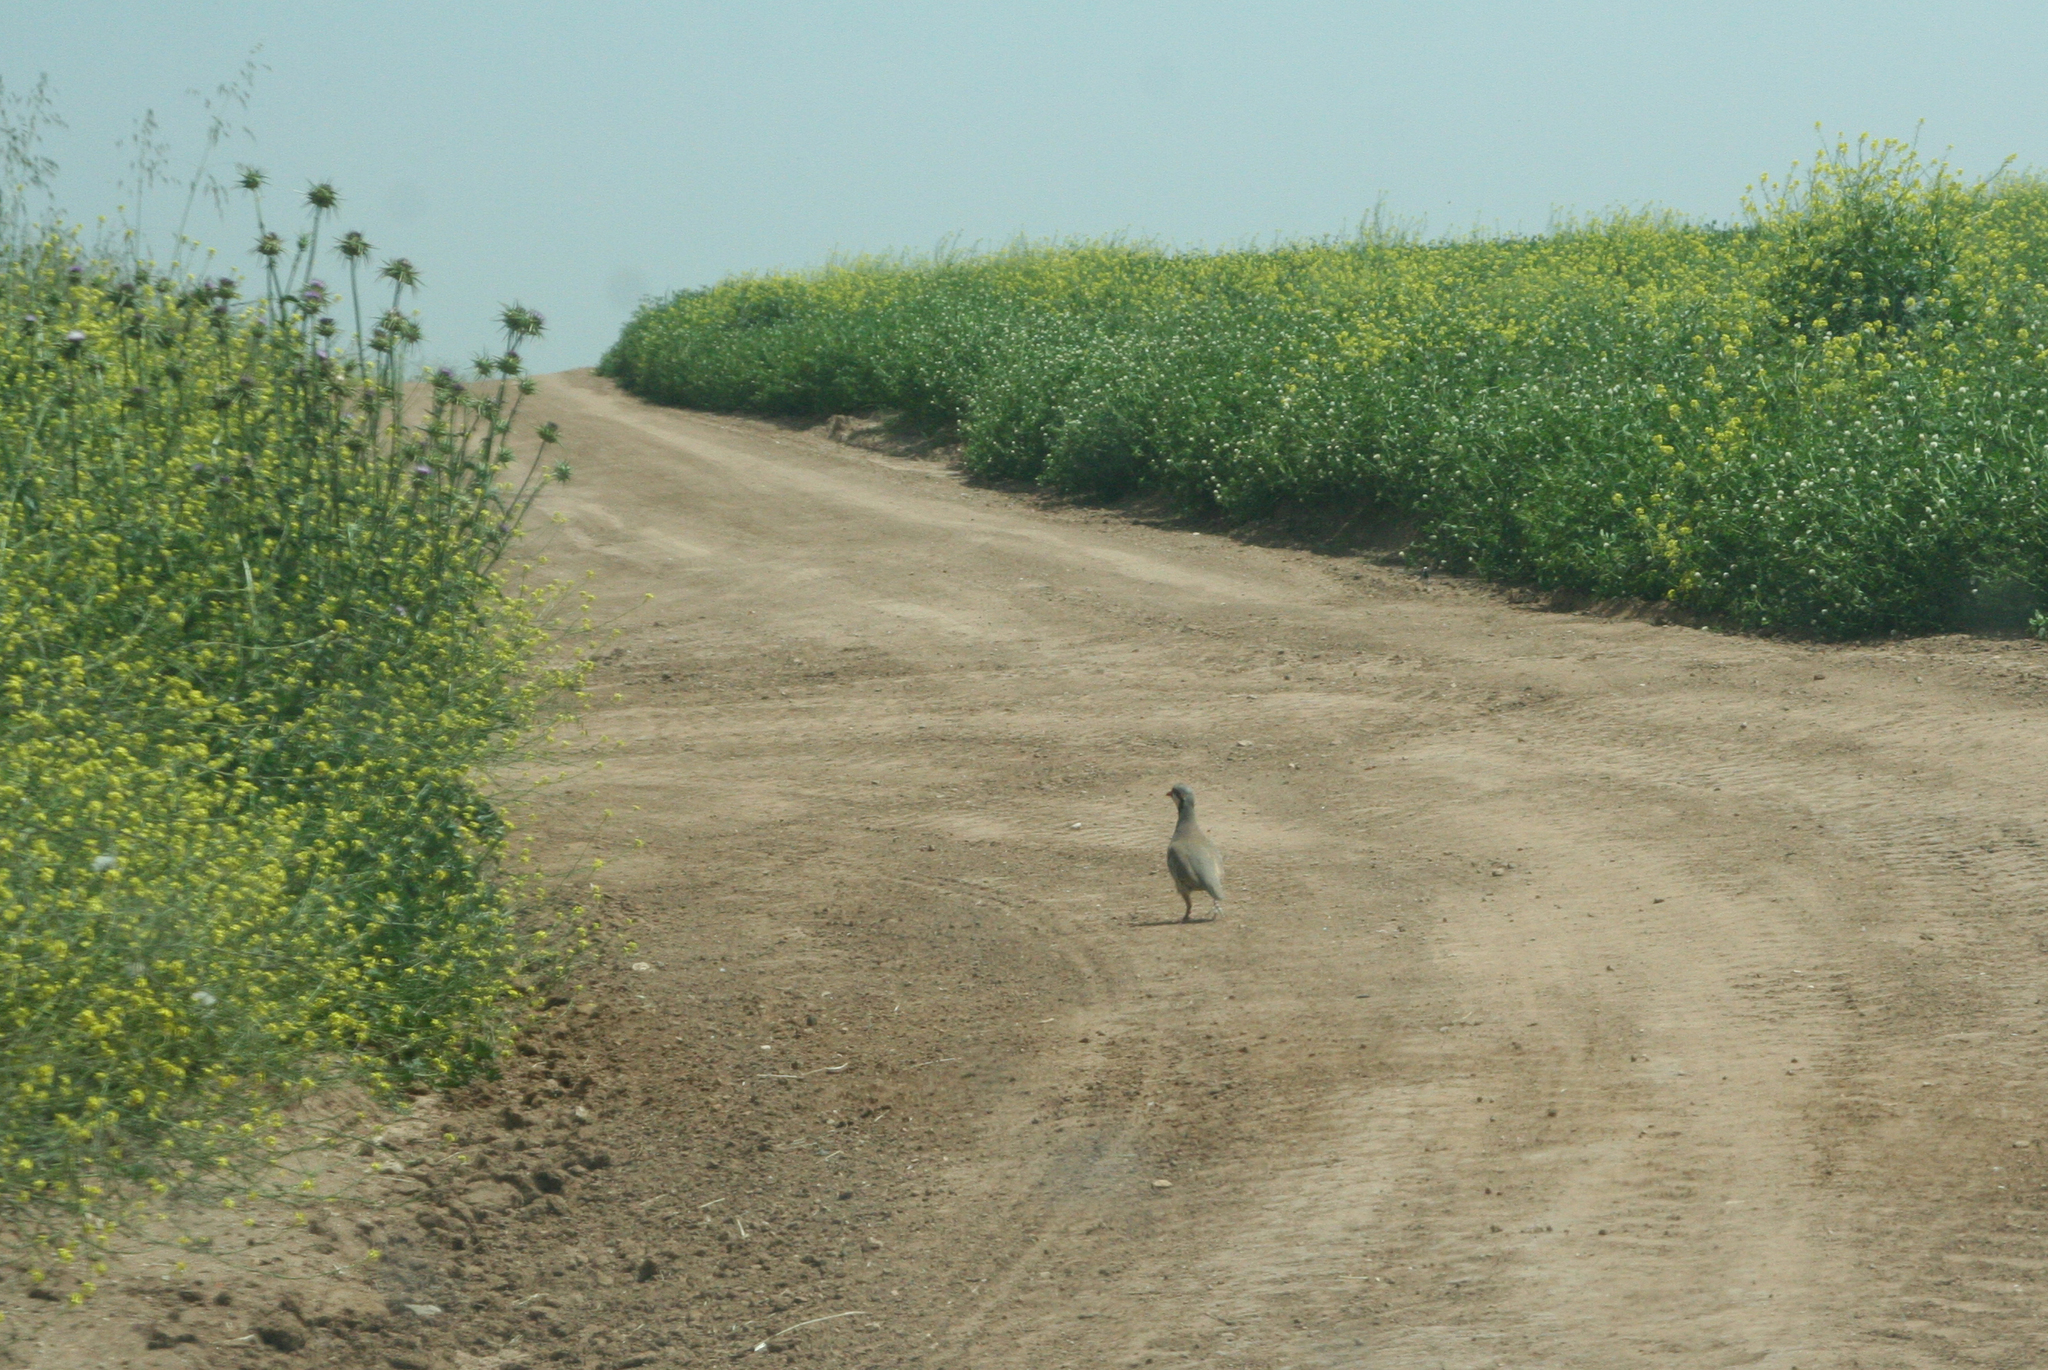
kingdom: Animalia
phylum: Chordata
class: Aves
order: Galliformes
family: Phasianidae
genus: Alectoris
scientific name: Alectoris chukar
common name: Chukar
